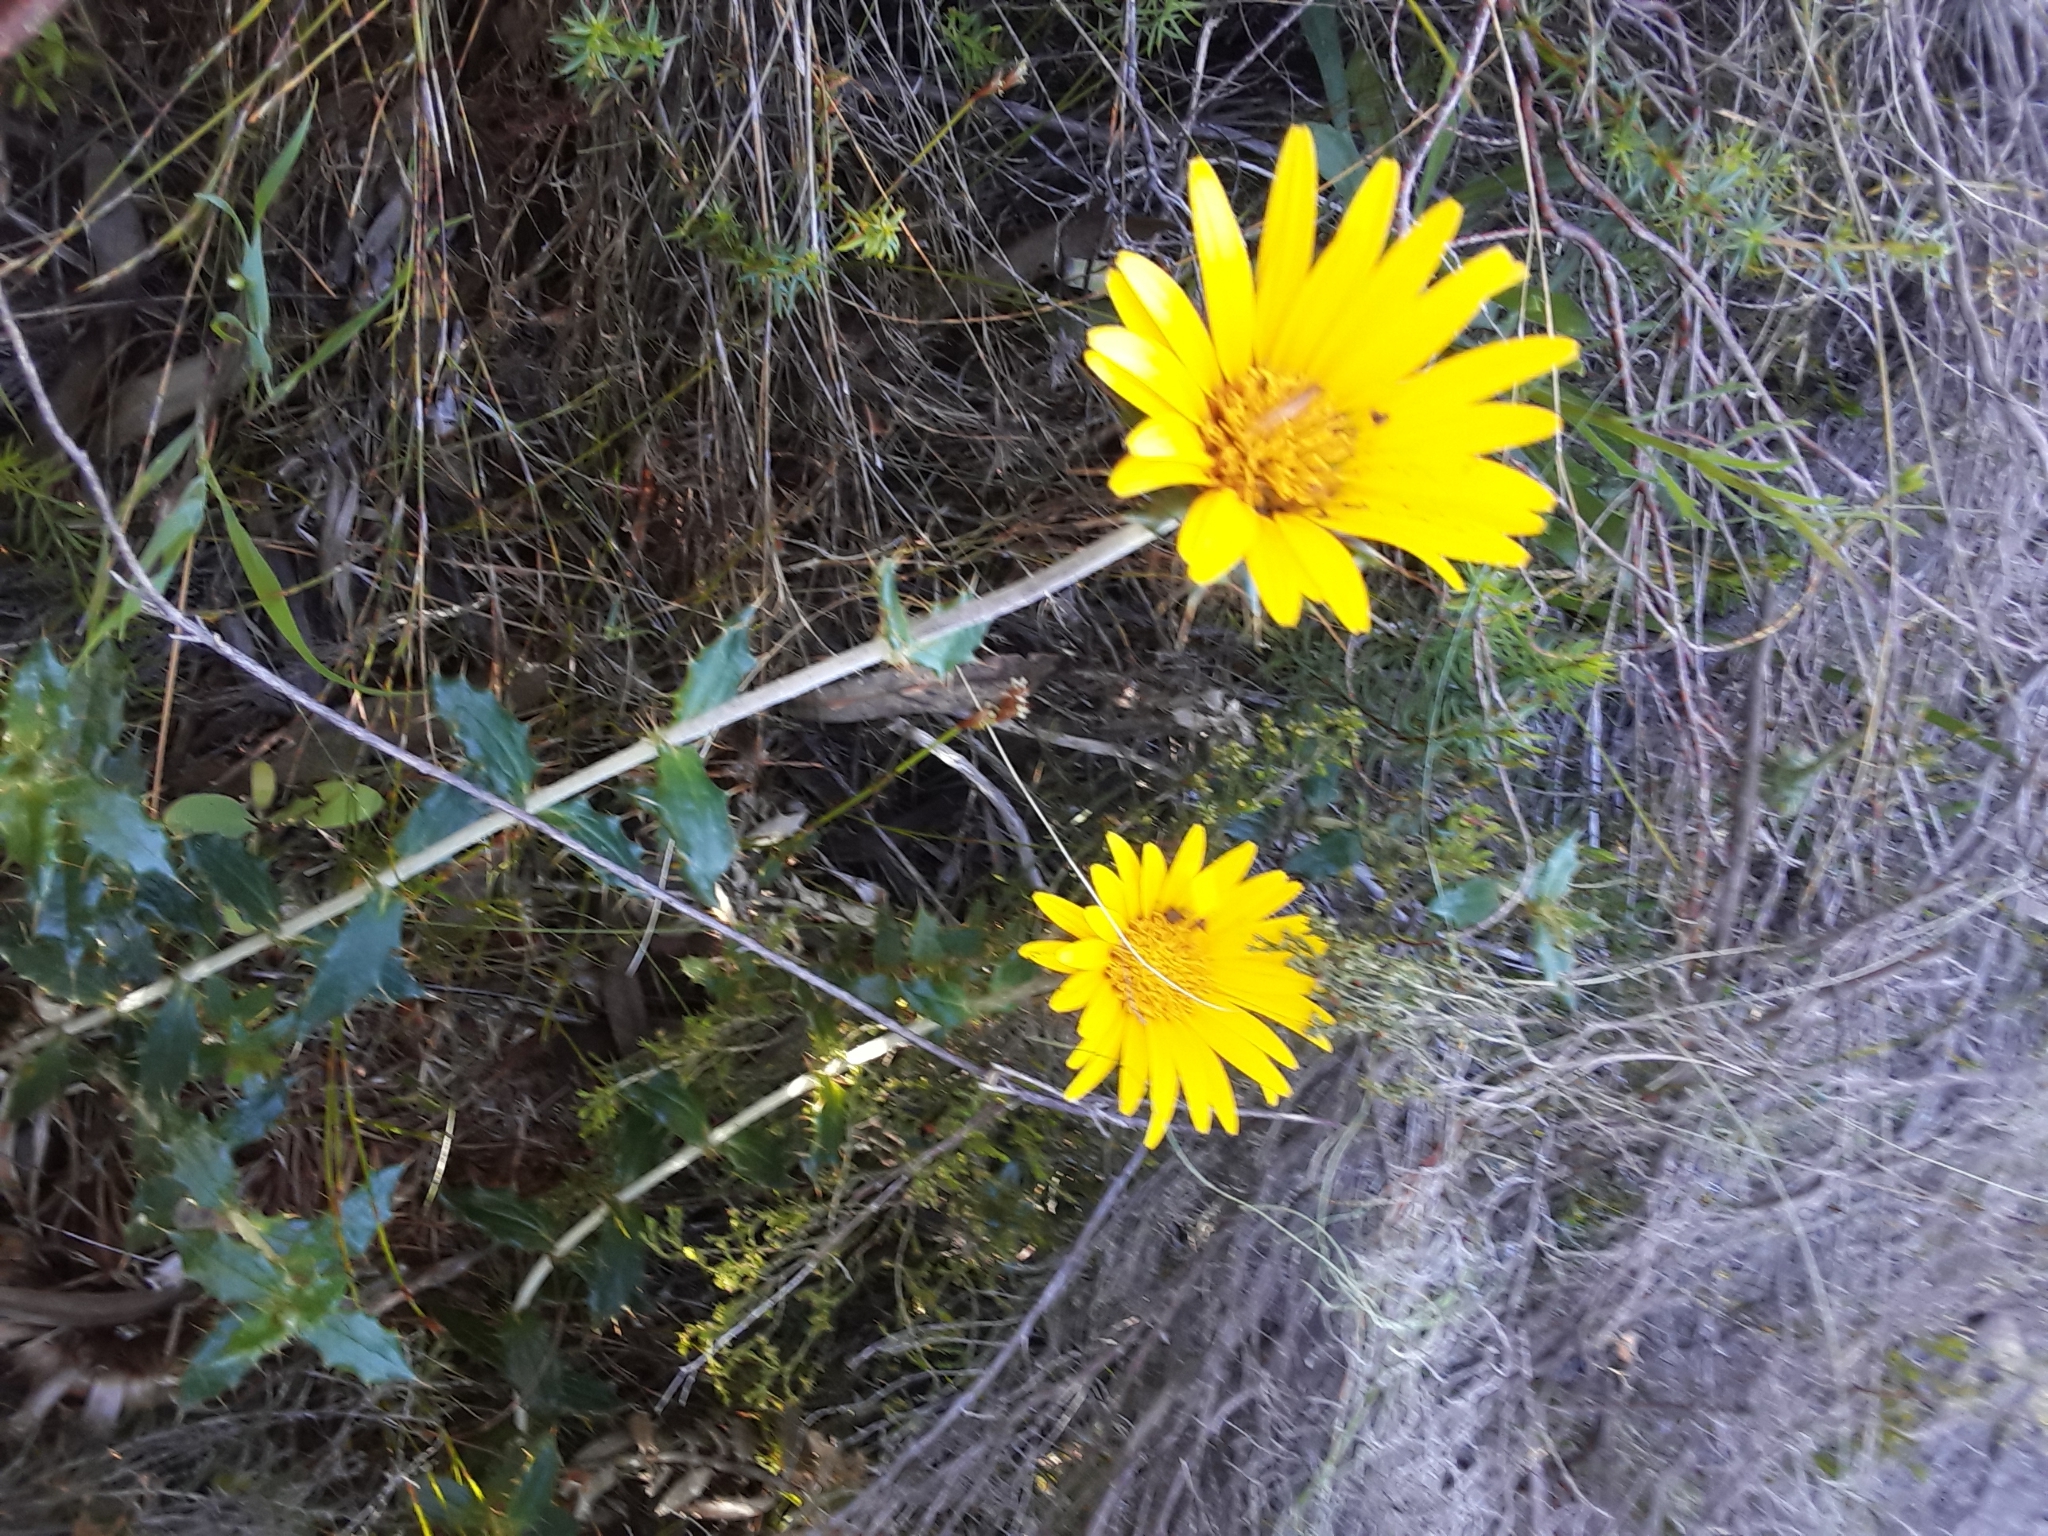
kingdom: Plantae
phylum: Tracheophyta
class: Magnoliopsida
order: Asterales
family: Asteraceae
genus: Berkheya
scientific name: Berkheya barbata
